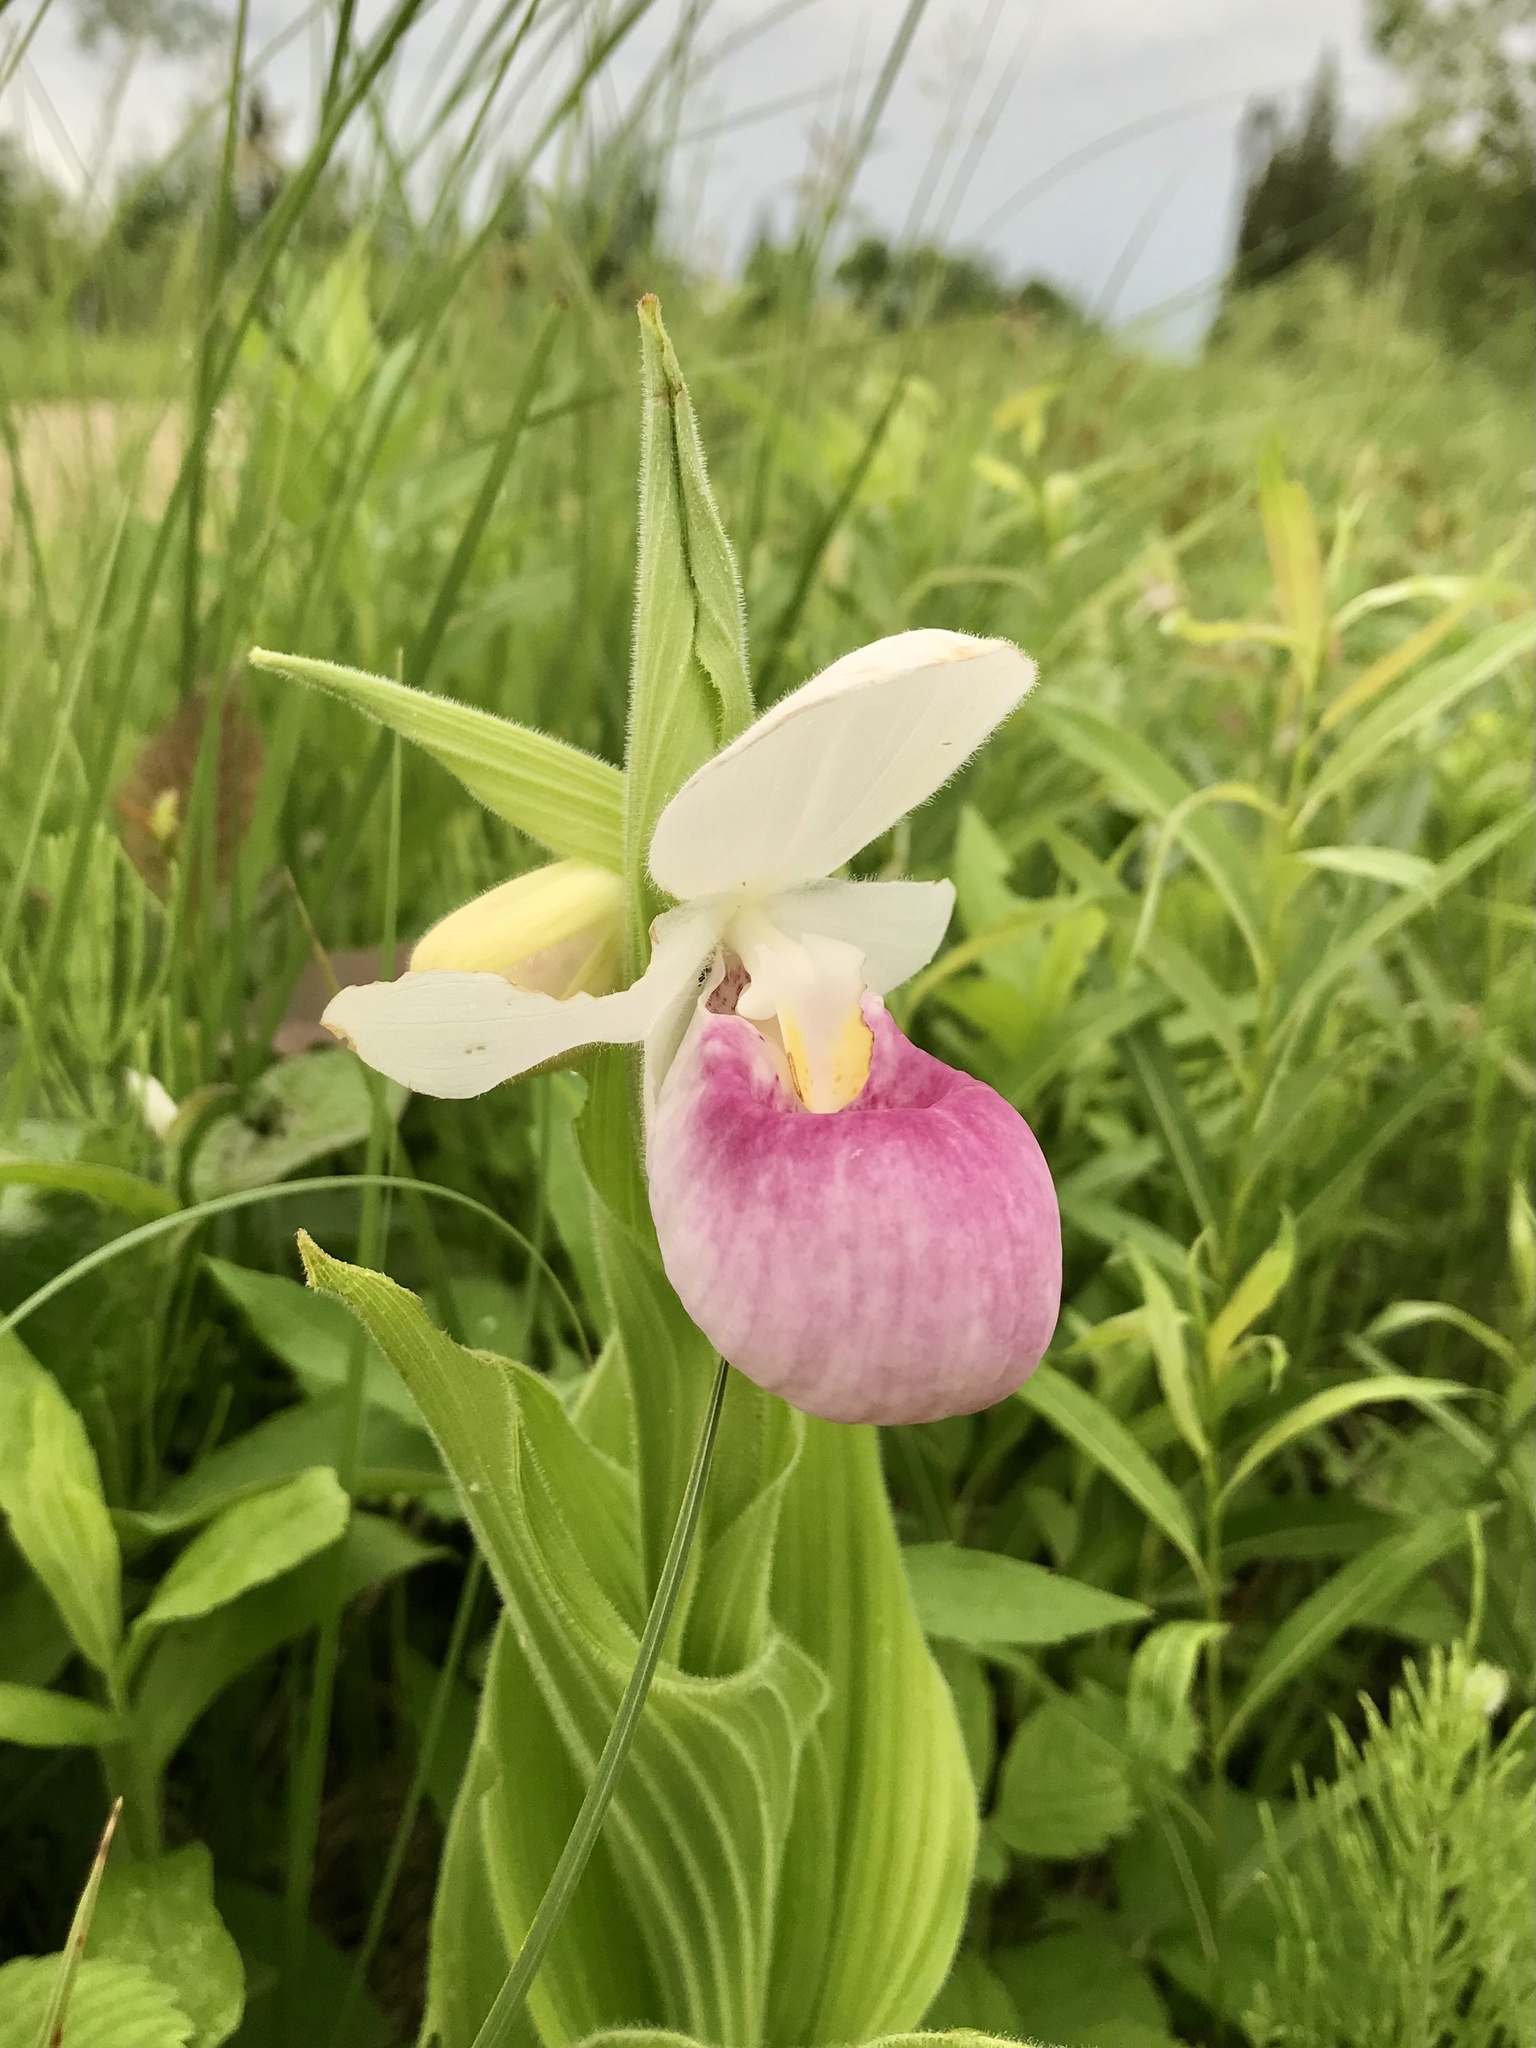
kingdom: Plantae
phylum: Tracheophyta
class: Liliopsida
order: Asparagales
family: Orchidaceae
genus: Cypripedium
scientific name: Cypripedium reginae
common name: Queen lady's-slipper
